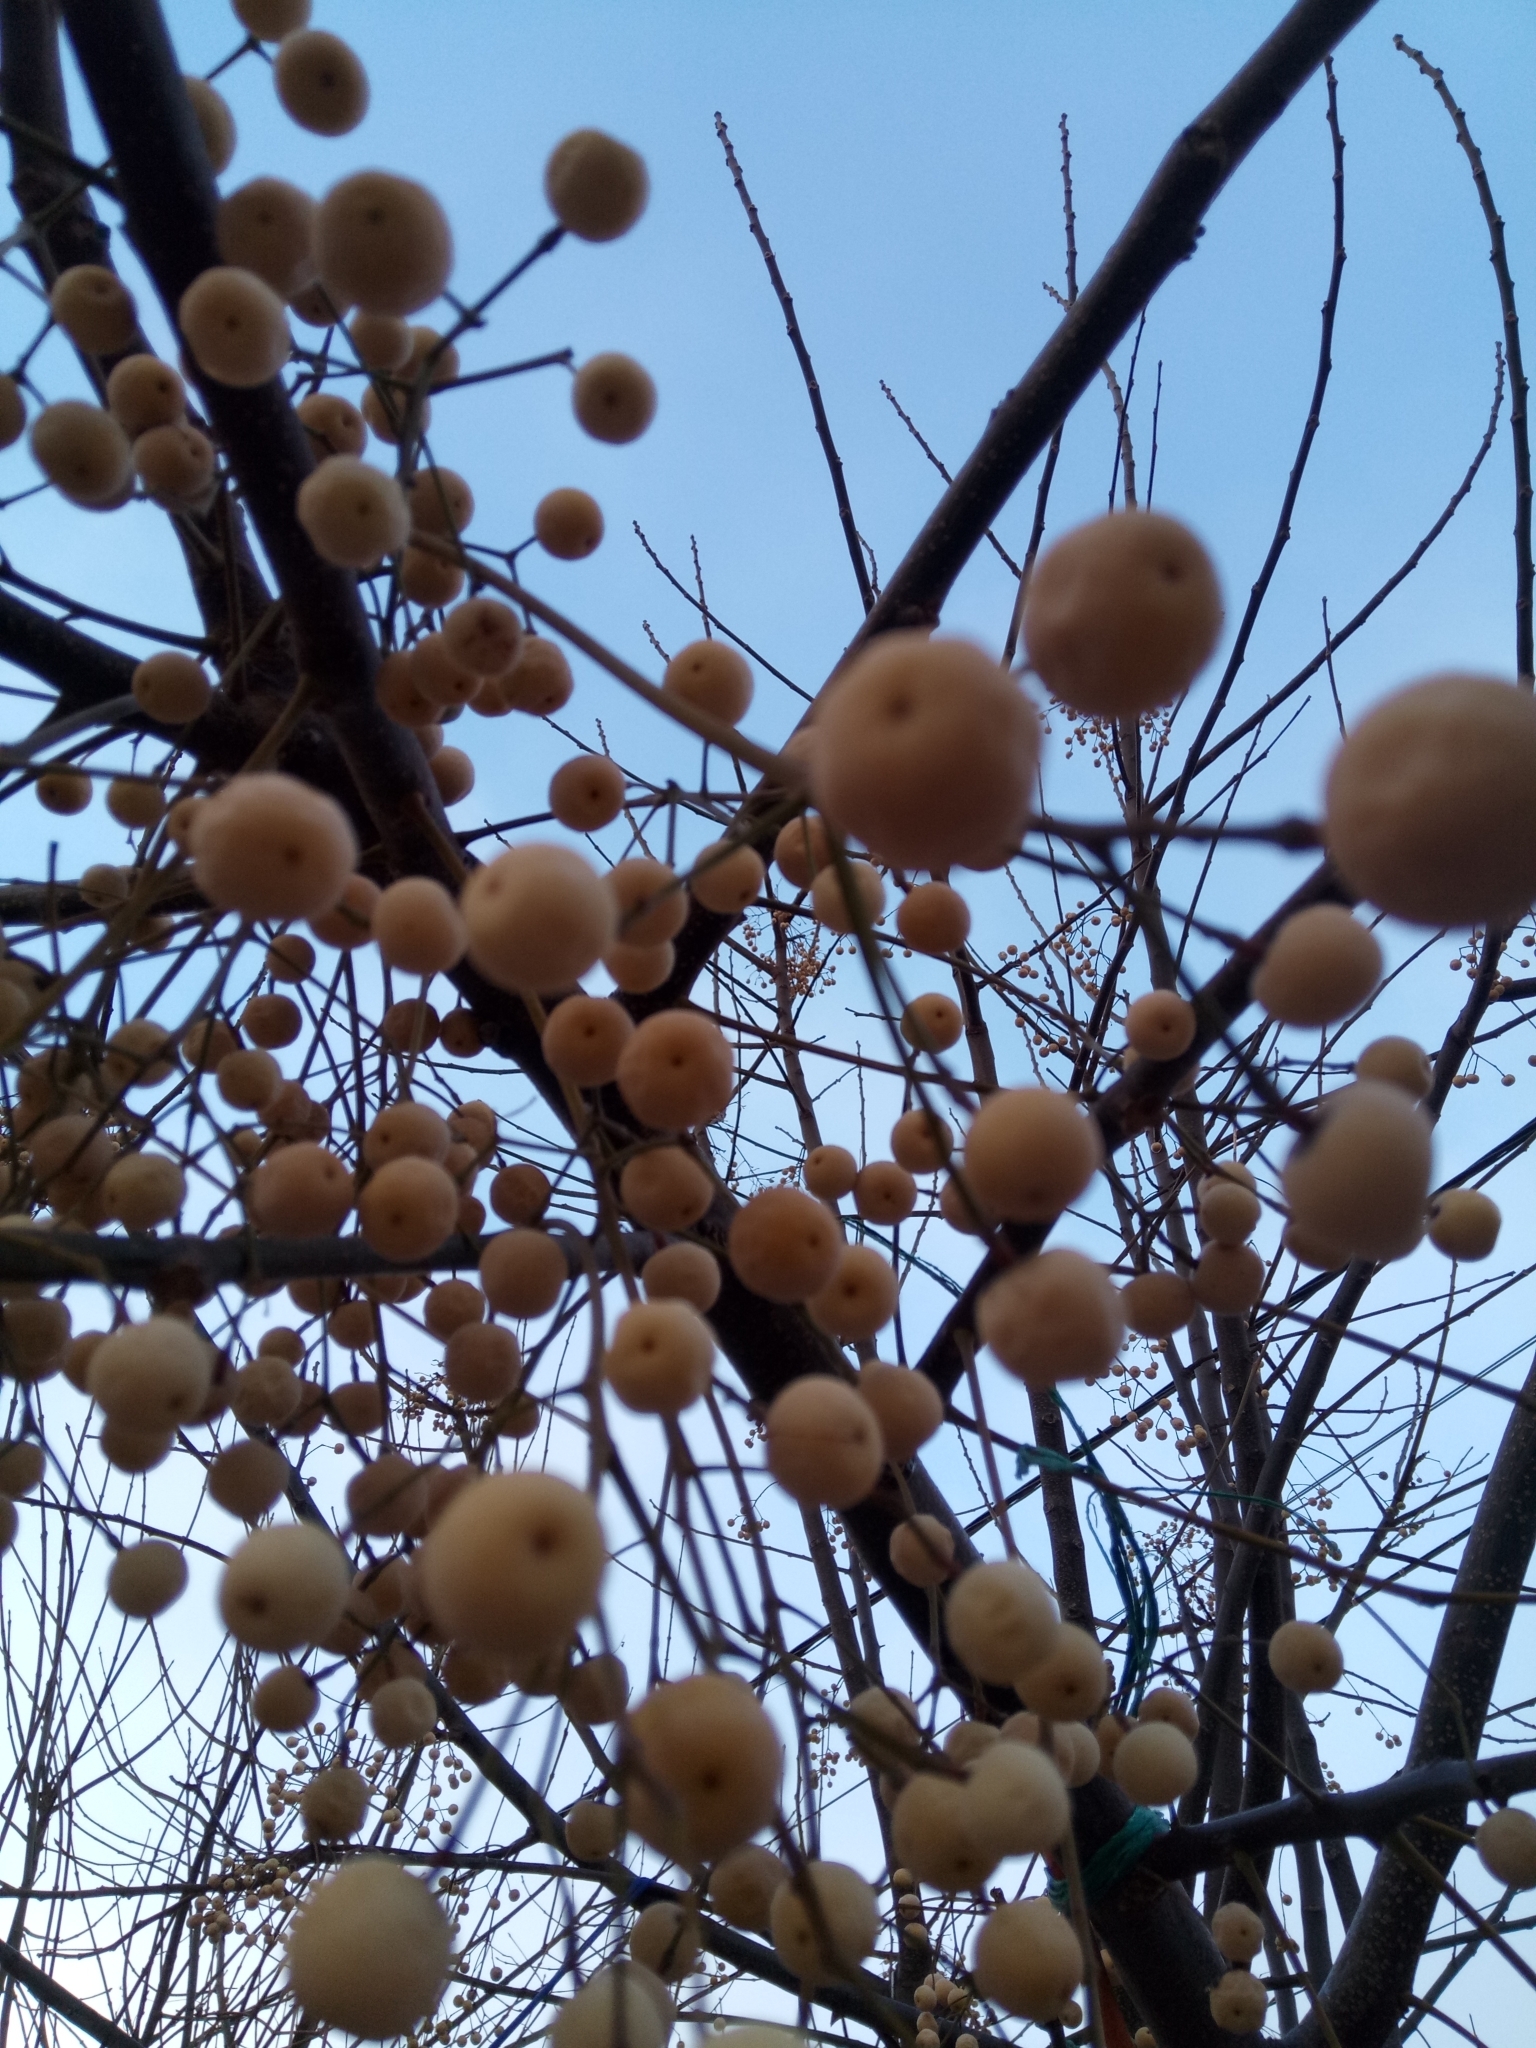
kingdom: Plantae
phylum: Tracheophyta
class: Magnoliopsida
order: Sapindales
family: Meliaceae
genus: Melia
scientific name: Melia azedarach
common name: Chinaberrytree
